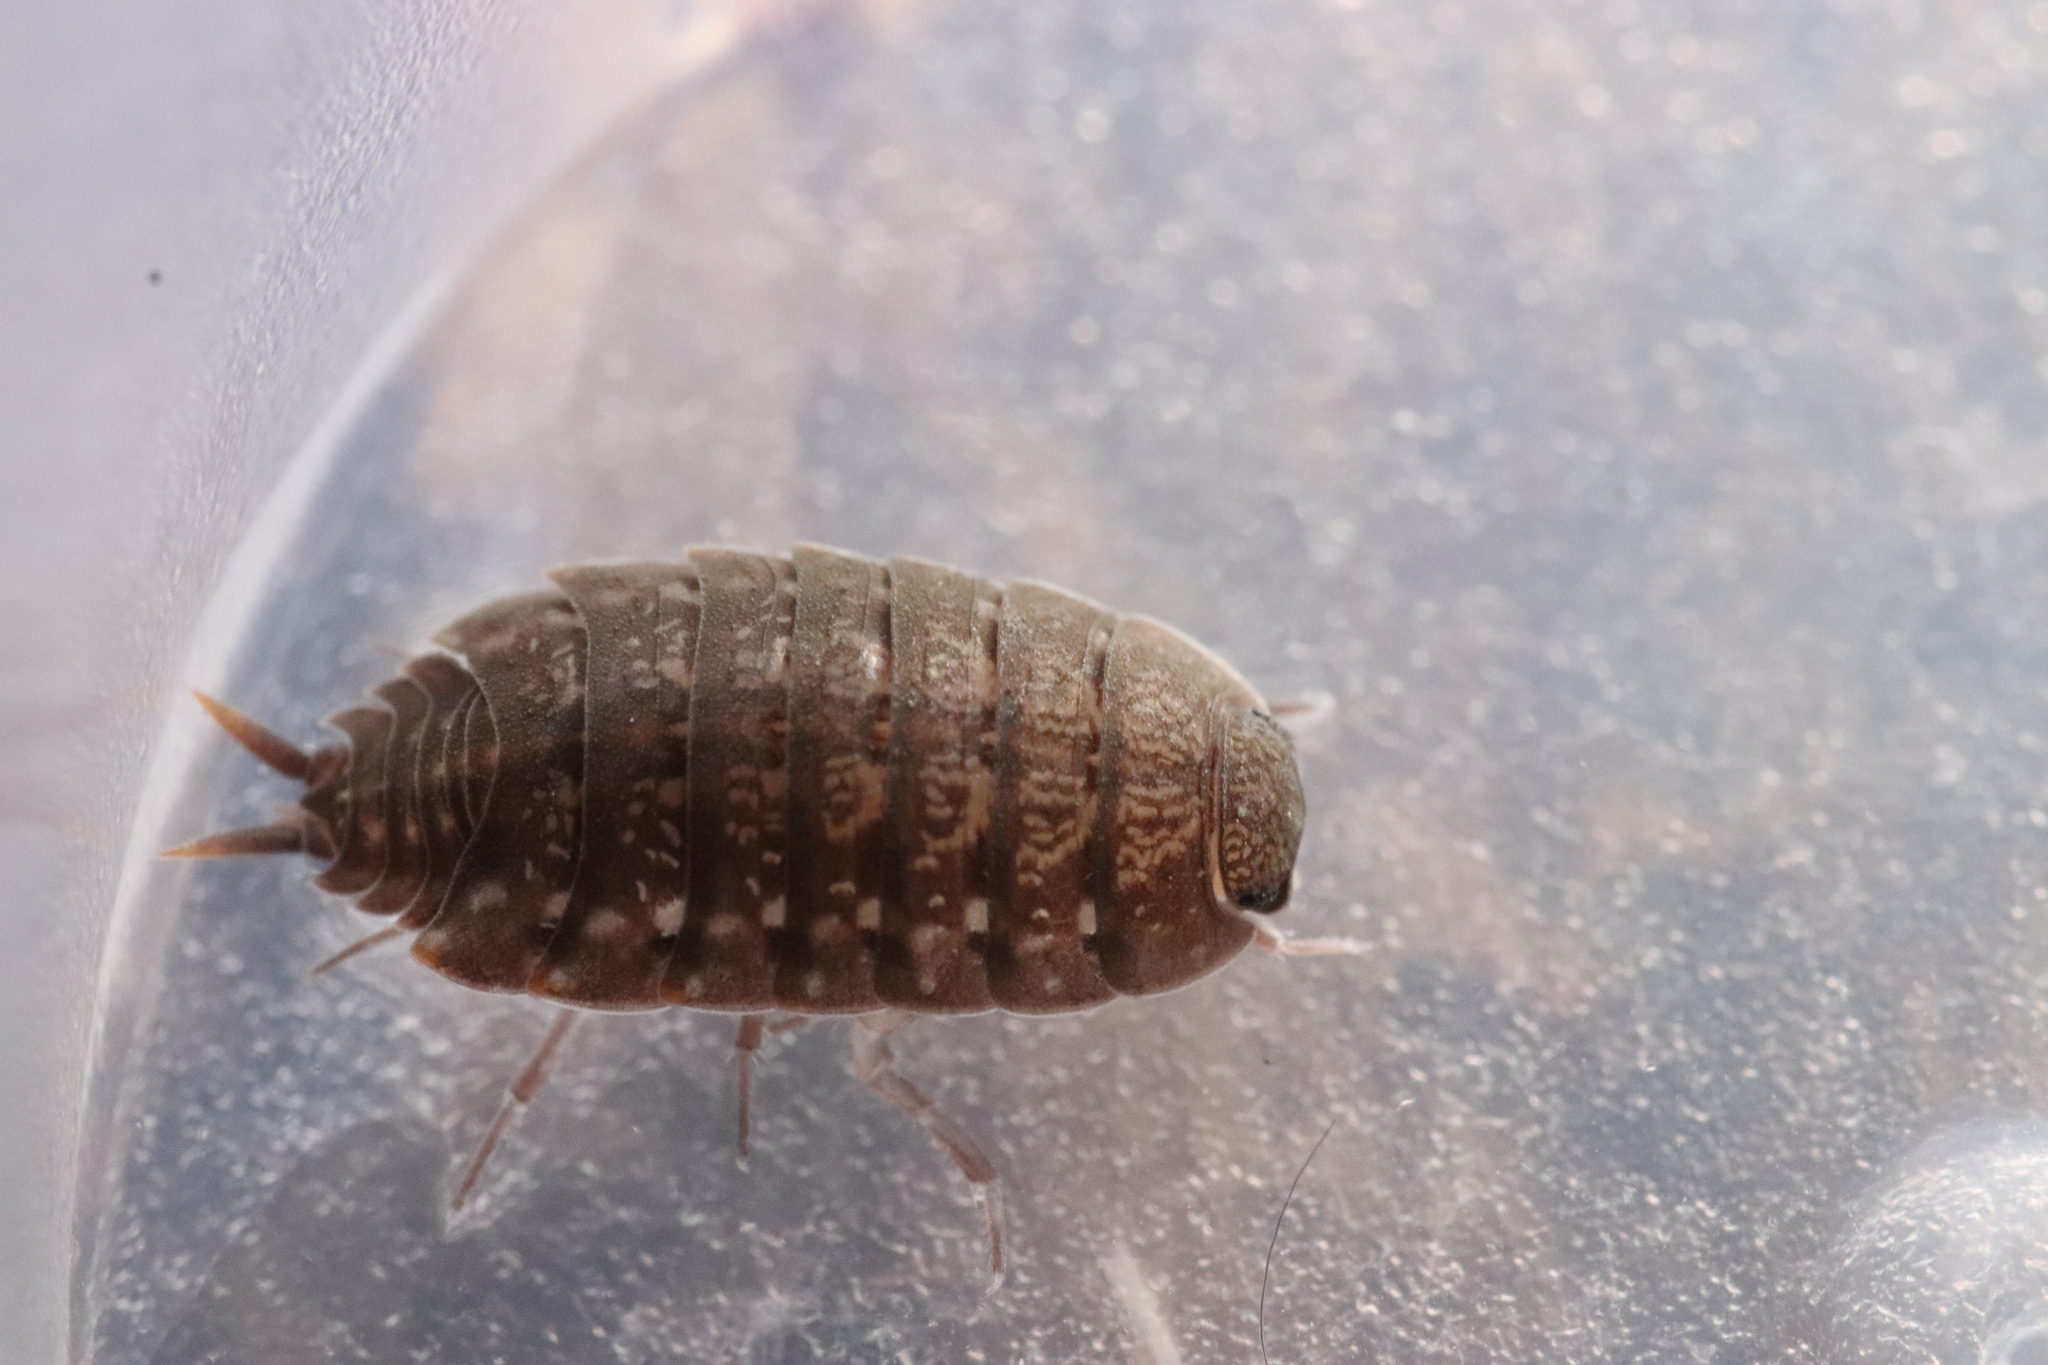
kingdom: Animalia
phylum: Arthropoda
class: Malacostraca
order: Isopoda
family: Agnaridae
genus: Orthometopon
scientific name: Orthometopon planum
